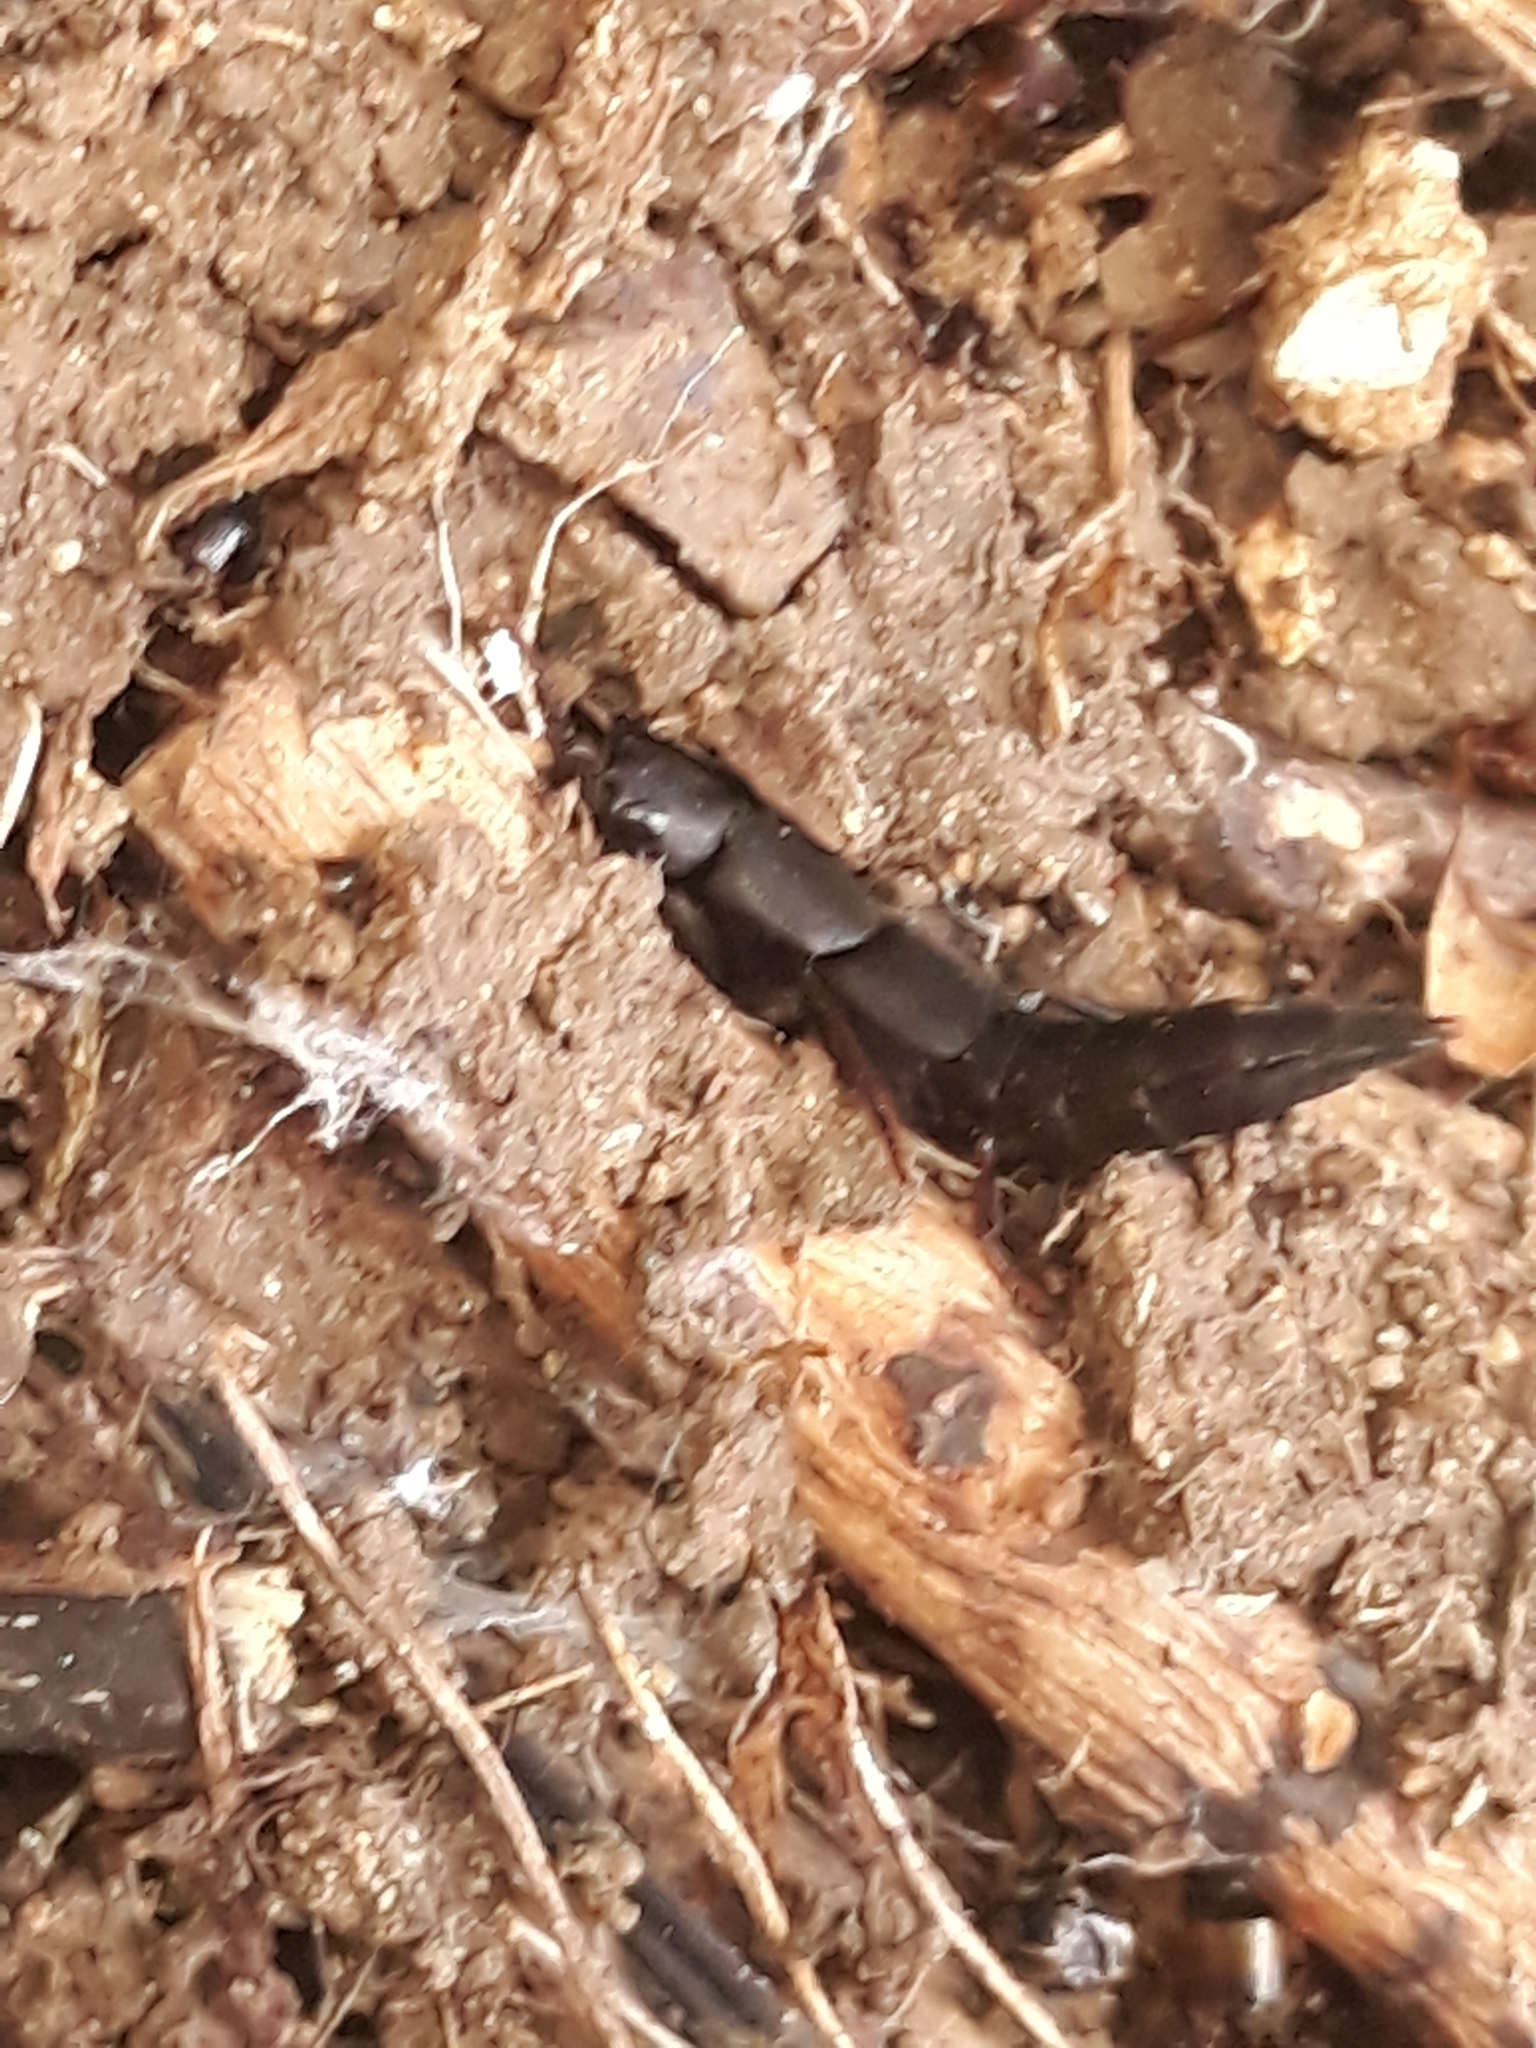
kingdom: Animalia
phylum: Arthropoda
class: Insecta
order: Coleoptera
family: Staphylinidae
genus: Ocypus
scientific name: Ocypus olens
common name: Devil's coach-horse
